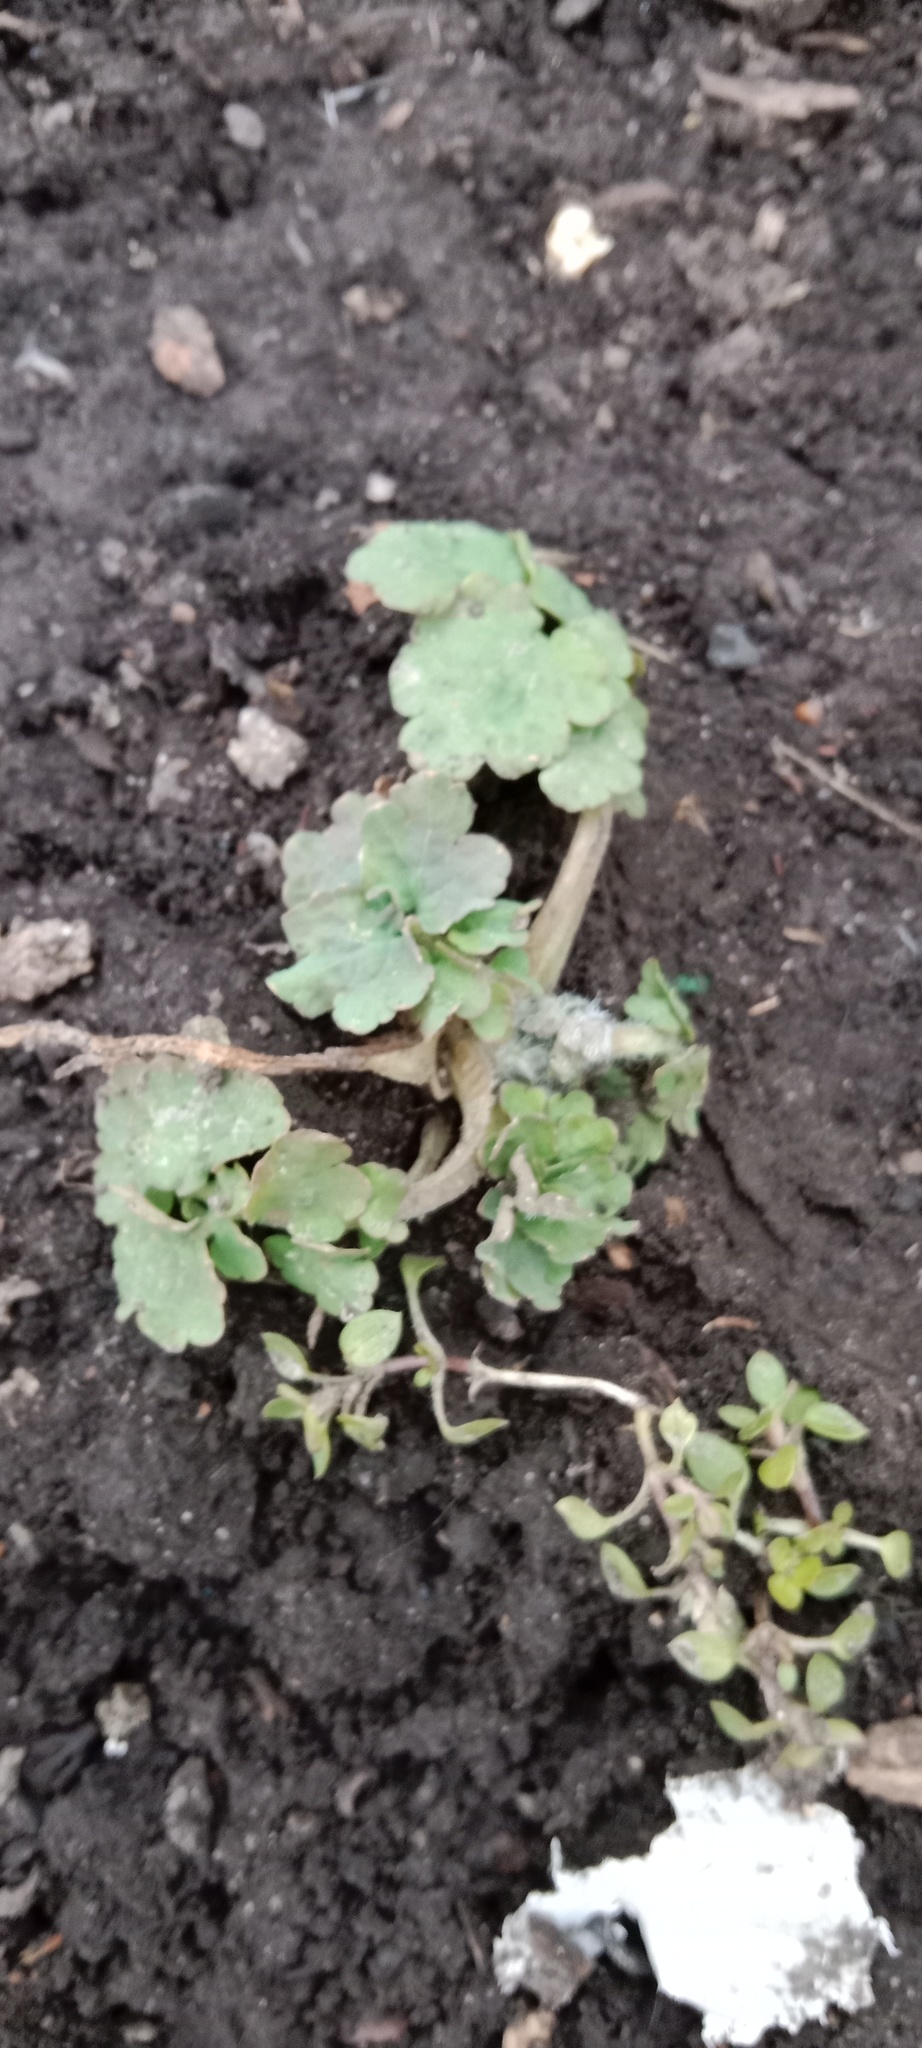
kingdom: Plantae
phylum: Tracheophyta
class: Magnoliopsida
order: Ranunculales
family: Papaveraceae
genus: Chelidonium
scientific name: Chelidonium majus
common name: Greater celandine
